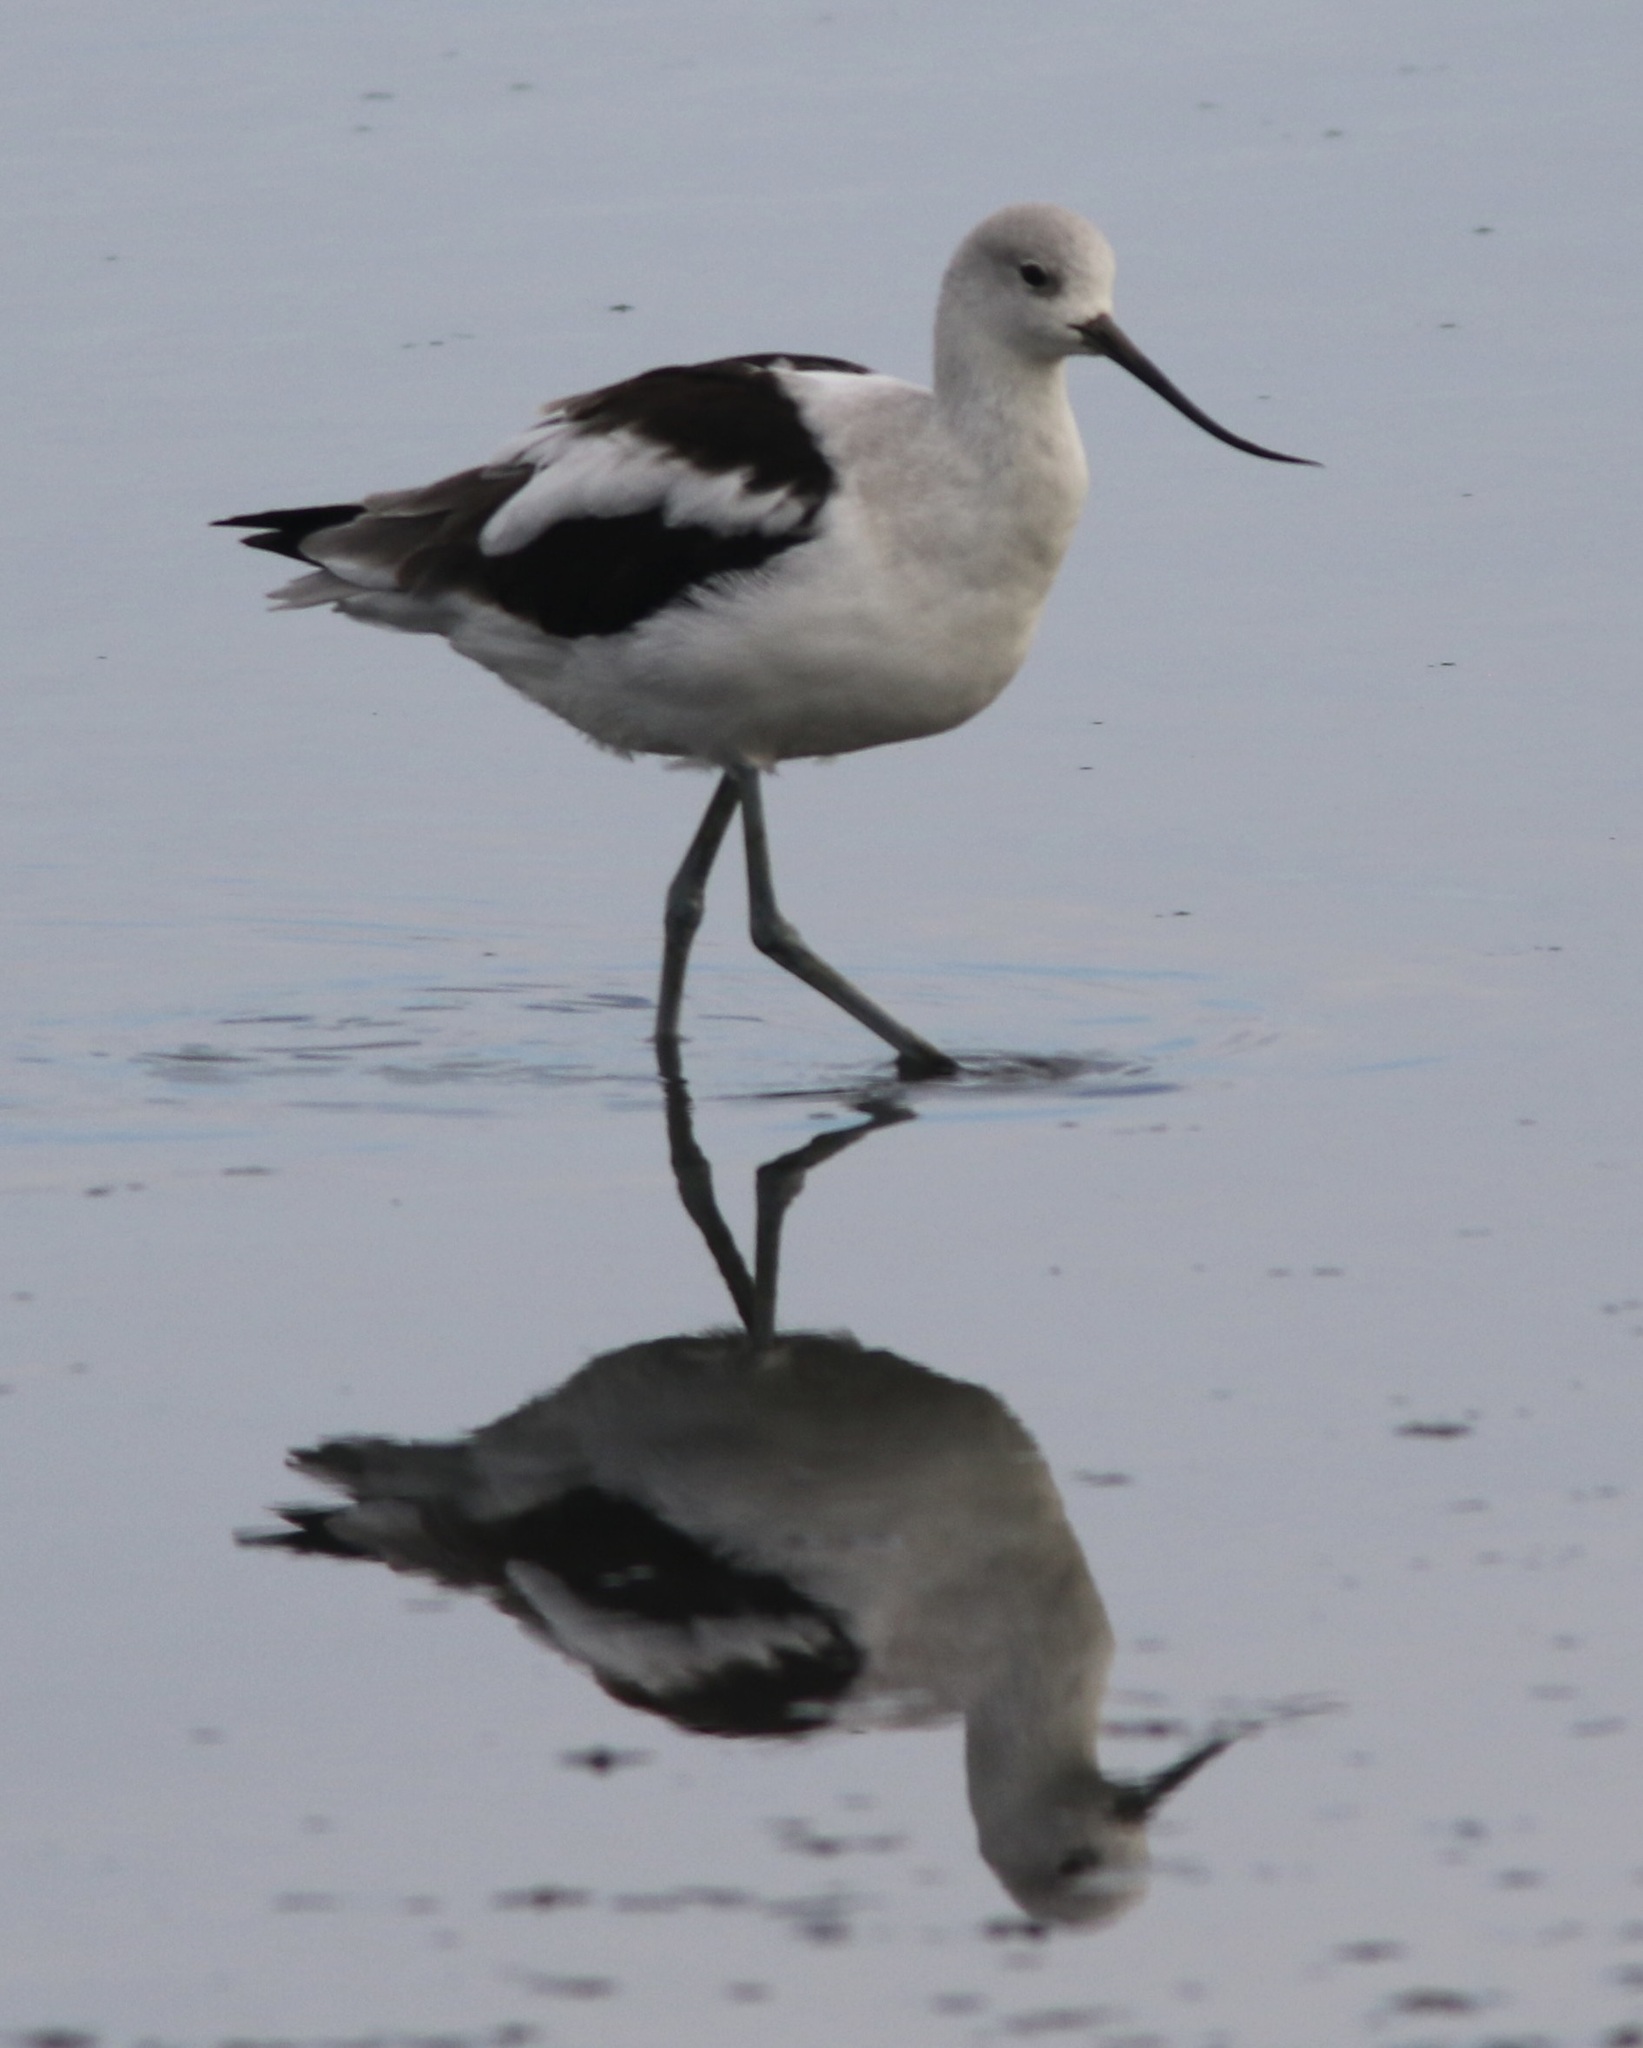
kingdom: Animalia
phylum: Chordata
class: Aves
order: Charadriiformes
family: Recurvirostridae
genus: Recurvirostra
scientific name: Recurvirostra americana
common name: American avocet
